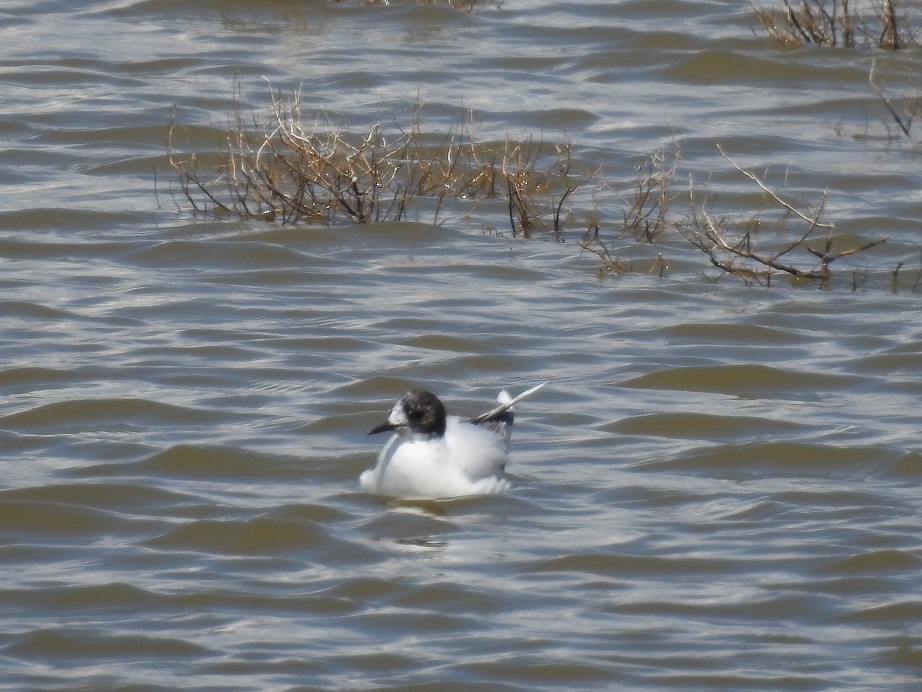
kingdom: Animalia
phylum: Chordata
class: Aves
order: Charadriiformes
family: Laridae
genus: Hydrocoloeus
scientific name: Hydrocoloeus minutus
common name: Little gull
